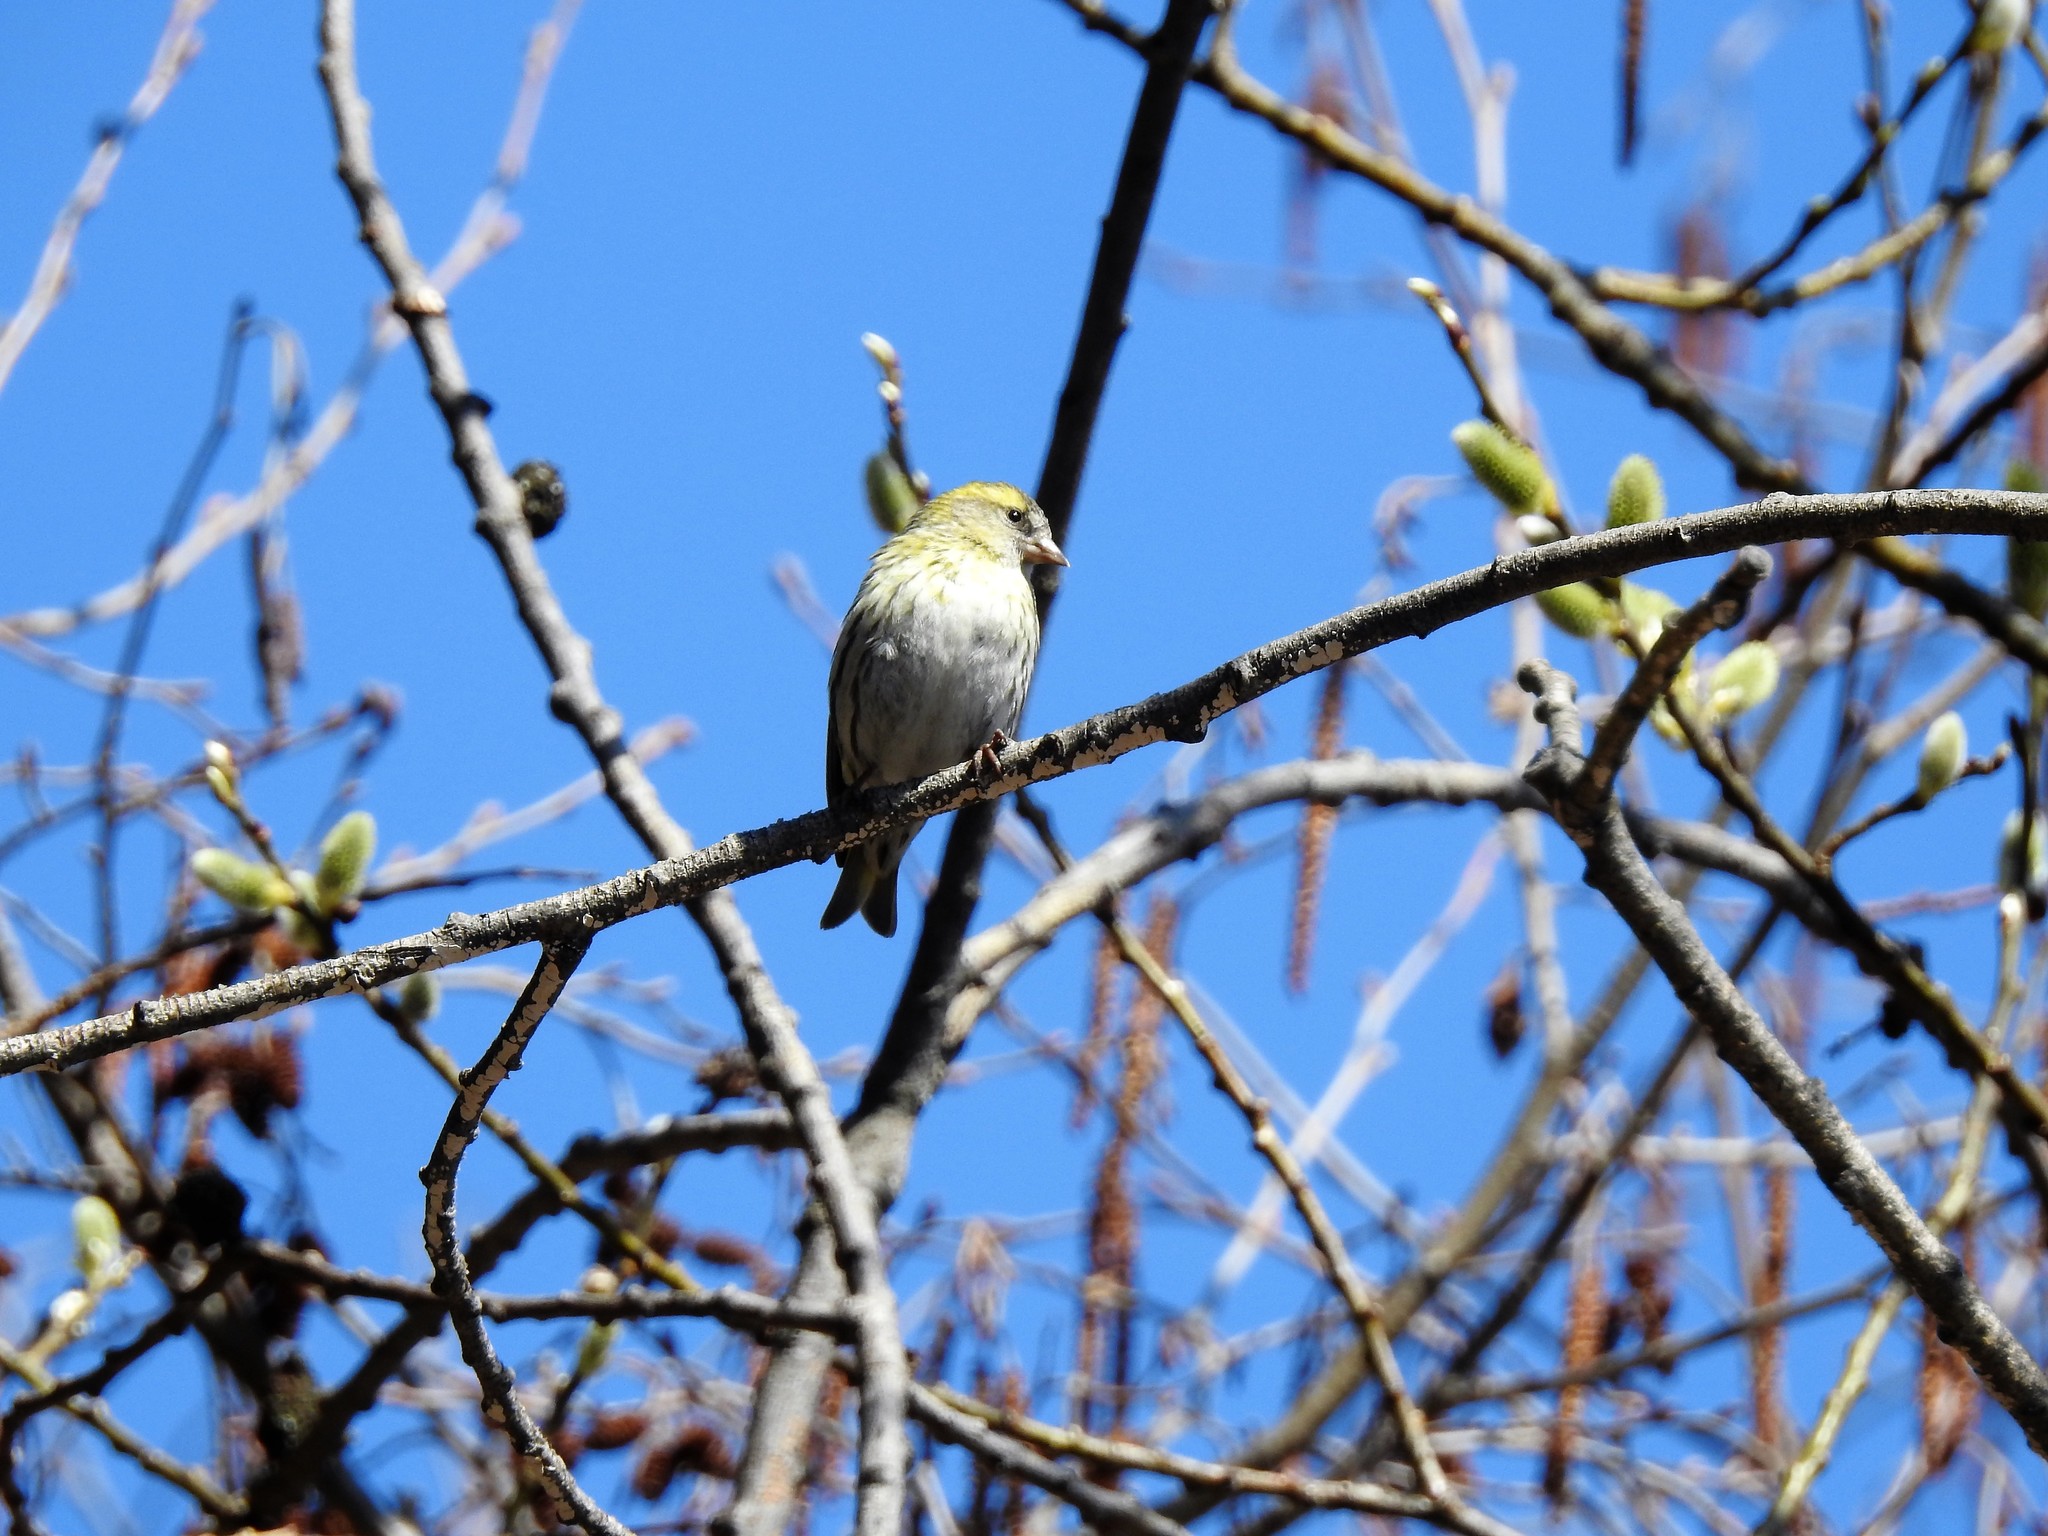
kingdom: Animalia
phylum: Chordata
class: Aves
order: Passeriformes
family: Fringillidae
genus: Spinus
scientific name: Spinus spinus
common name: Eurasian siskin
